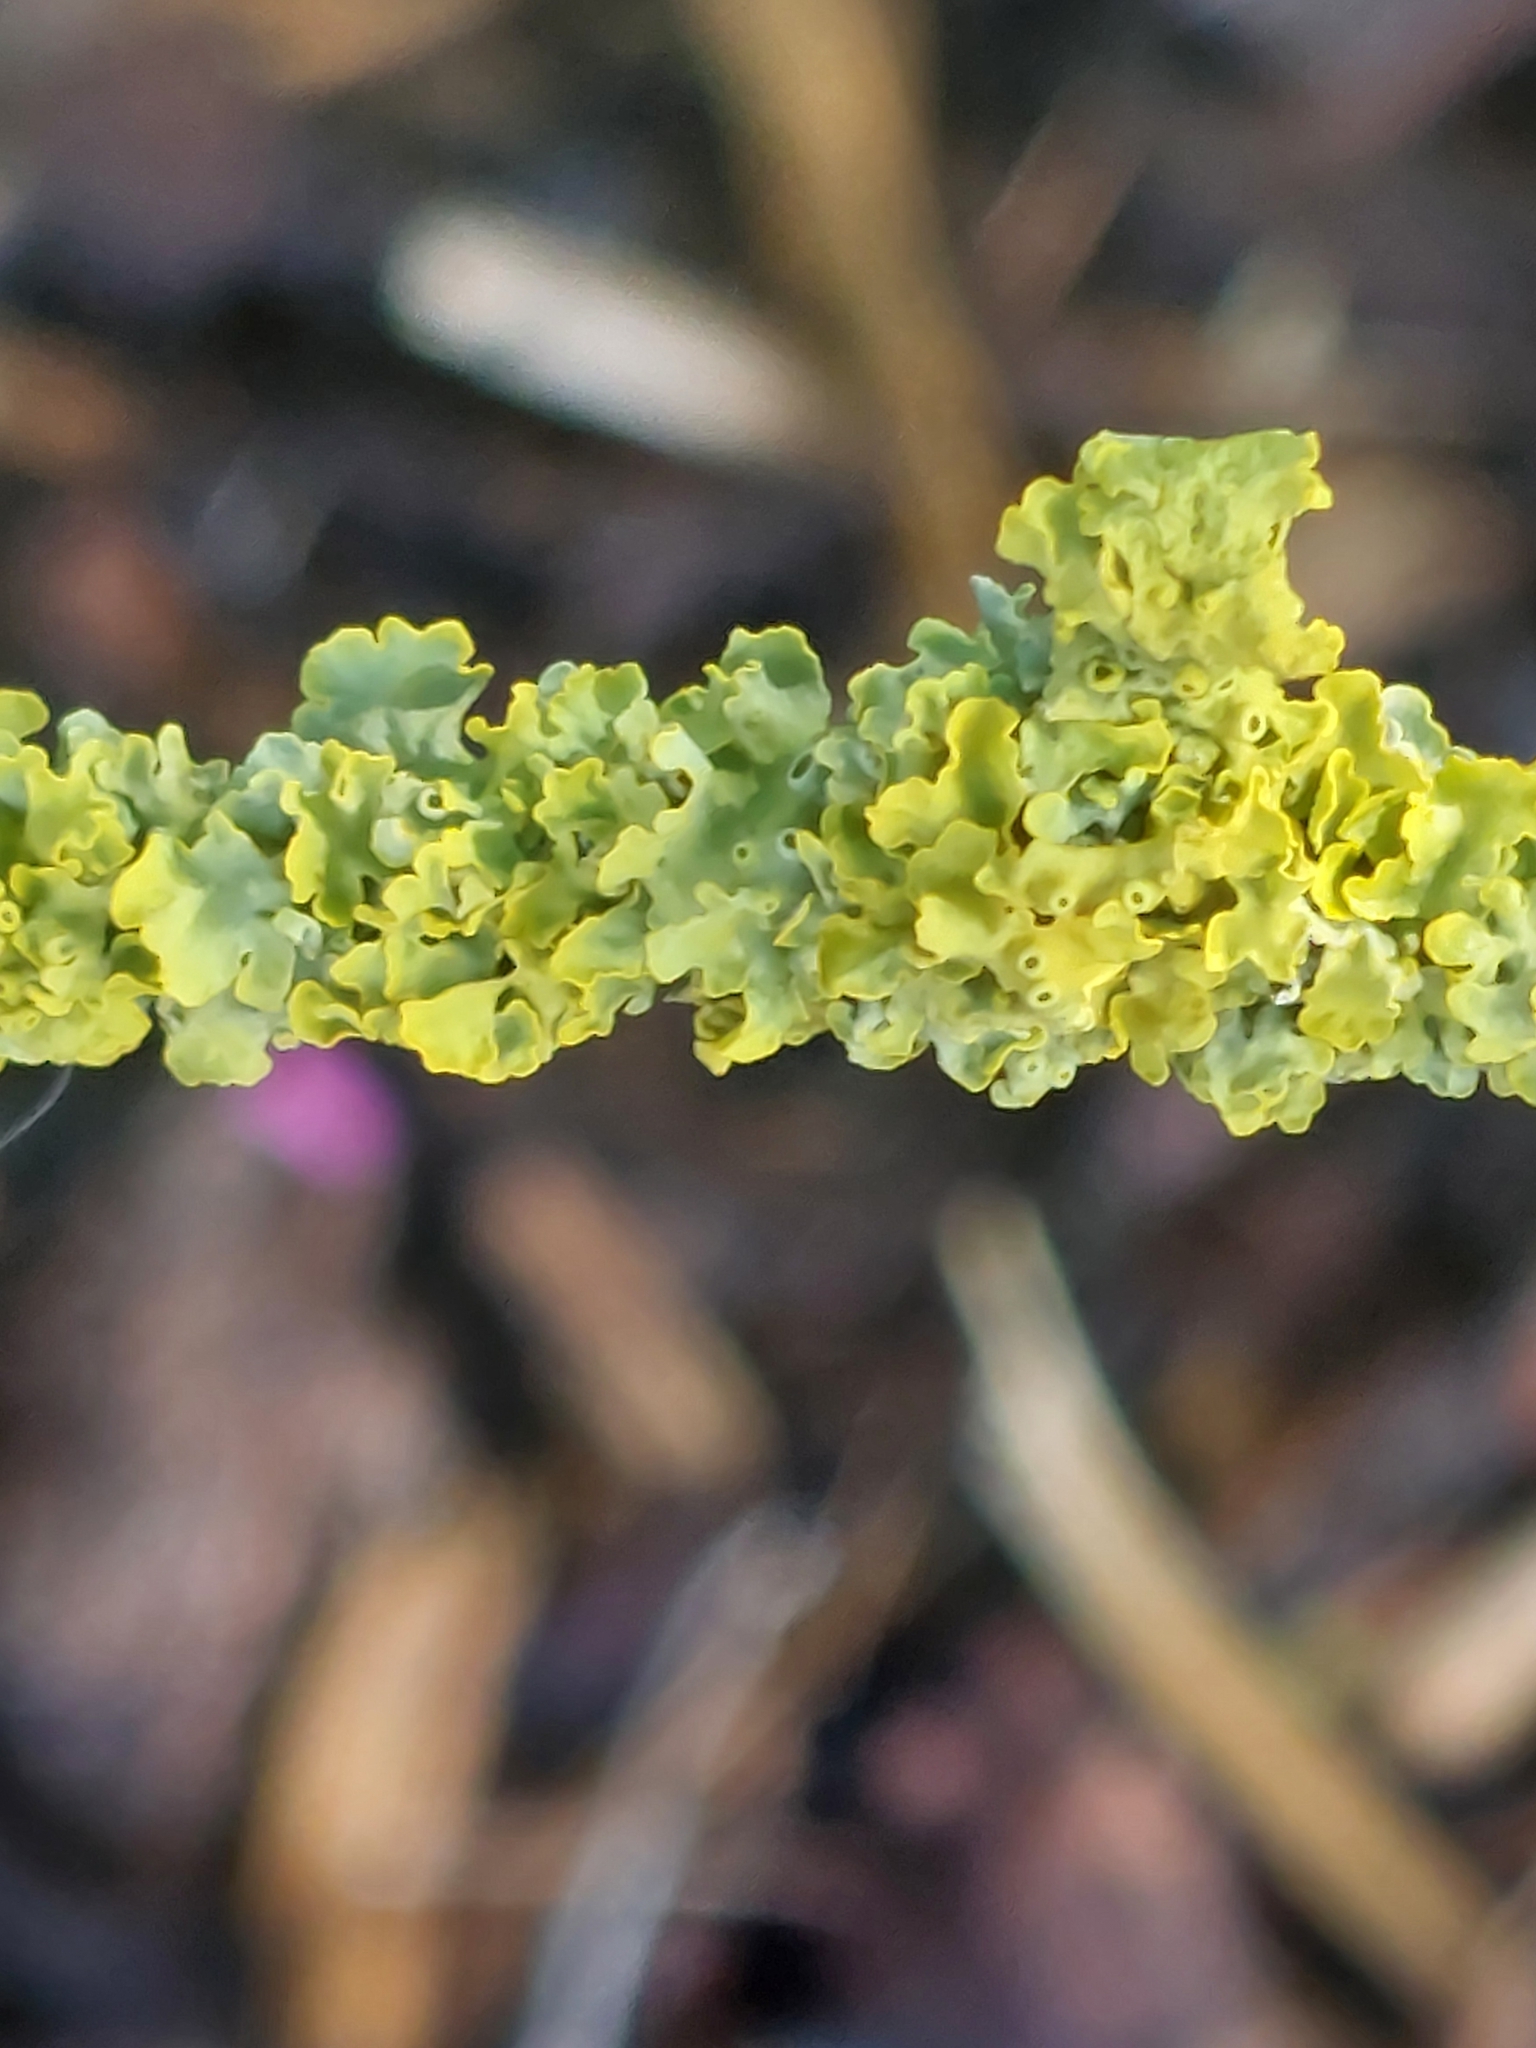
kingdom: Fungi
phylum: Ascomycota
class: Lecanoromycetes
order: Teloschistales
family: Teloschistaceae
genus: Xanthoria
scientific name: Xanthoria parietina
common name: Common orange lichen
